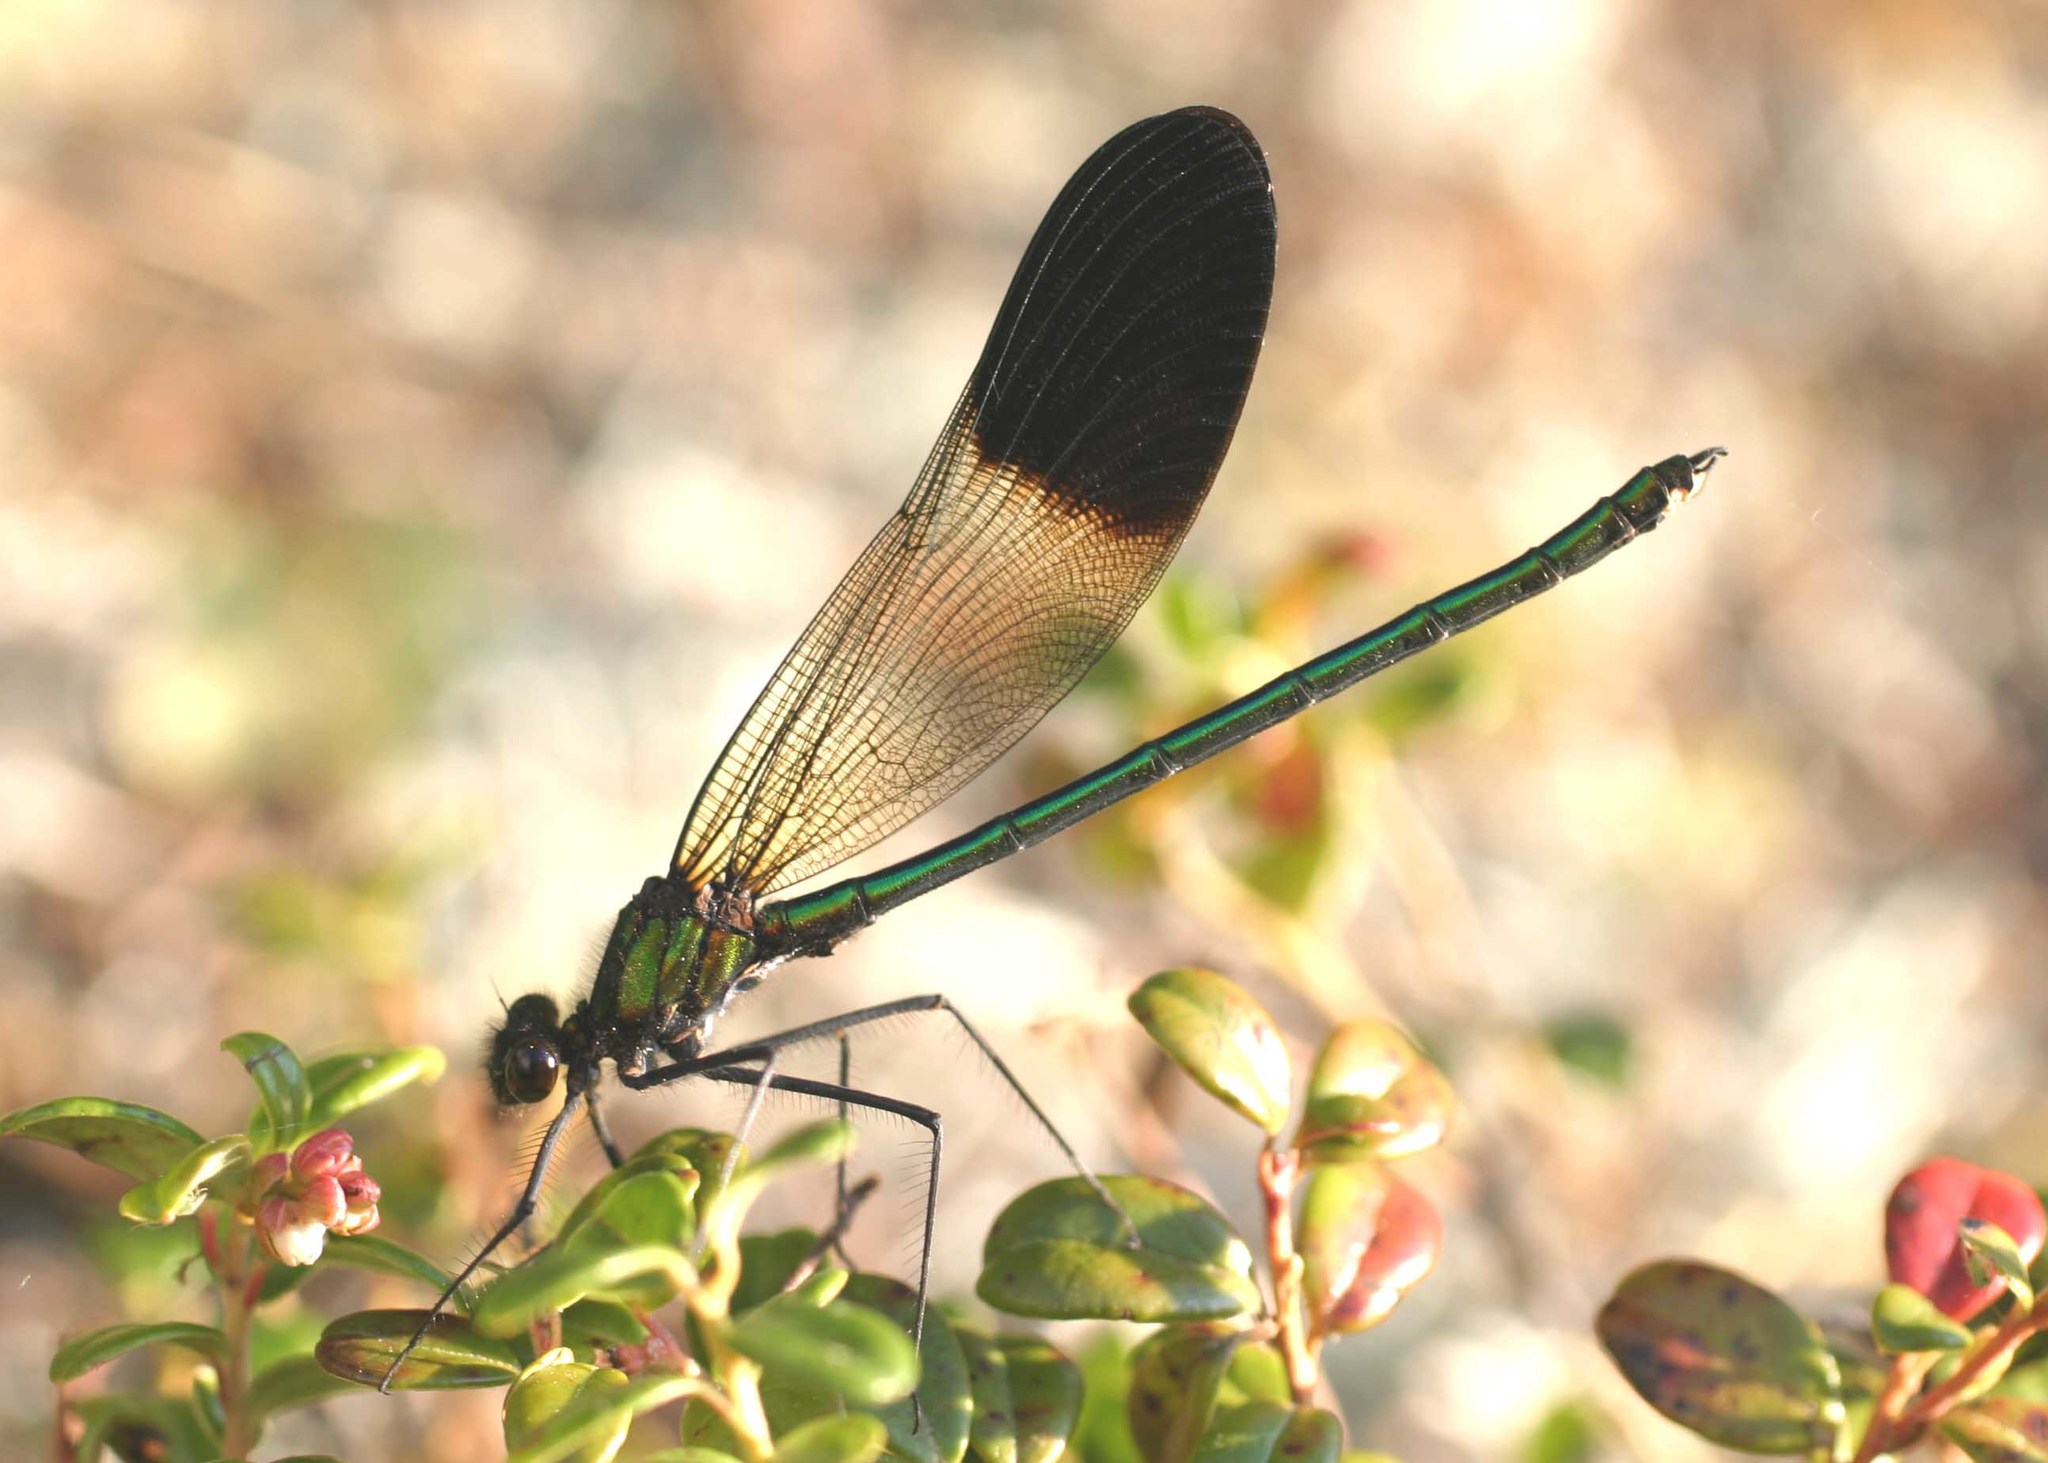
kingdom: Animalia
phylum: Arthropoda
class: Insecta
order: Odonata
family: Calopterygidae
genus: Calopteryx
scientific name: Calopteryx aequabilis
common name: River jewelwing
